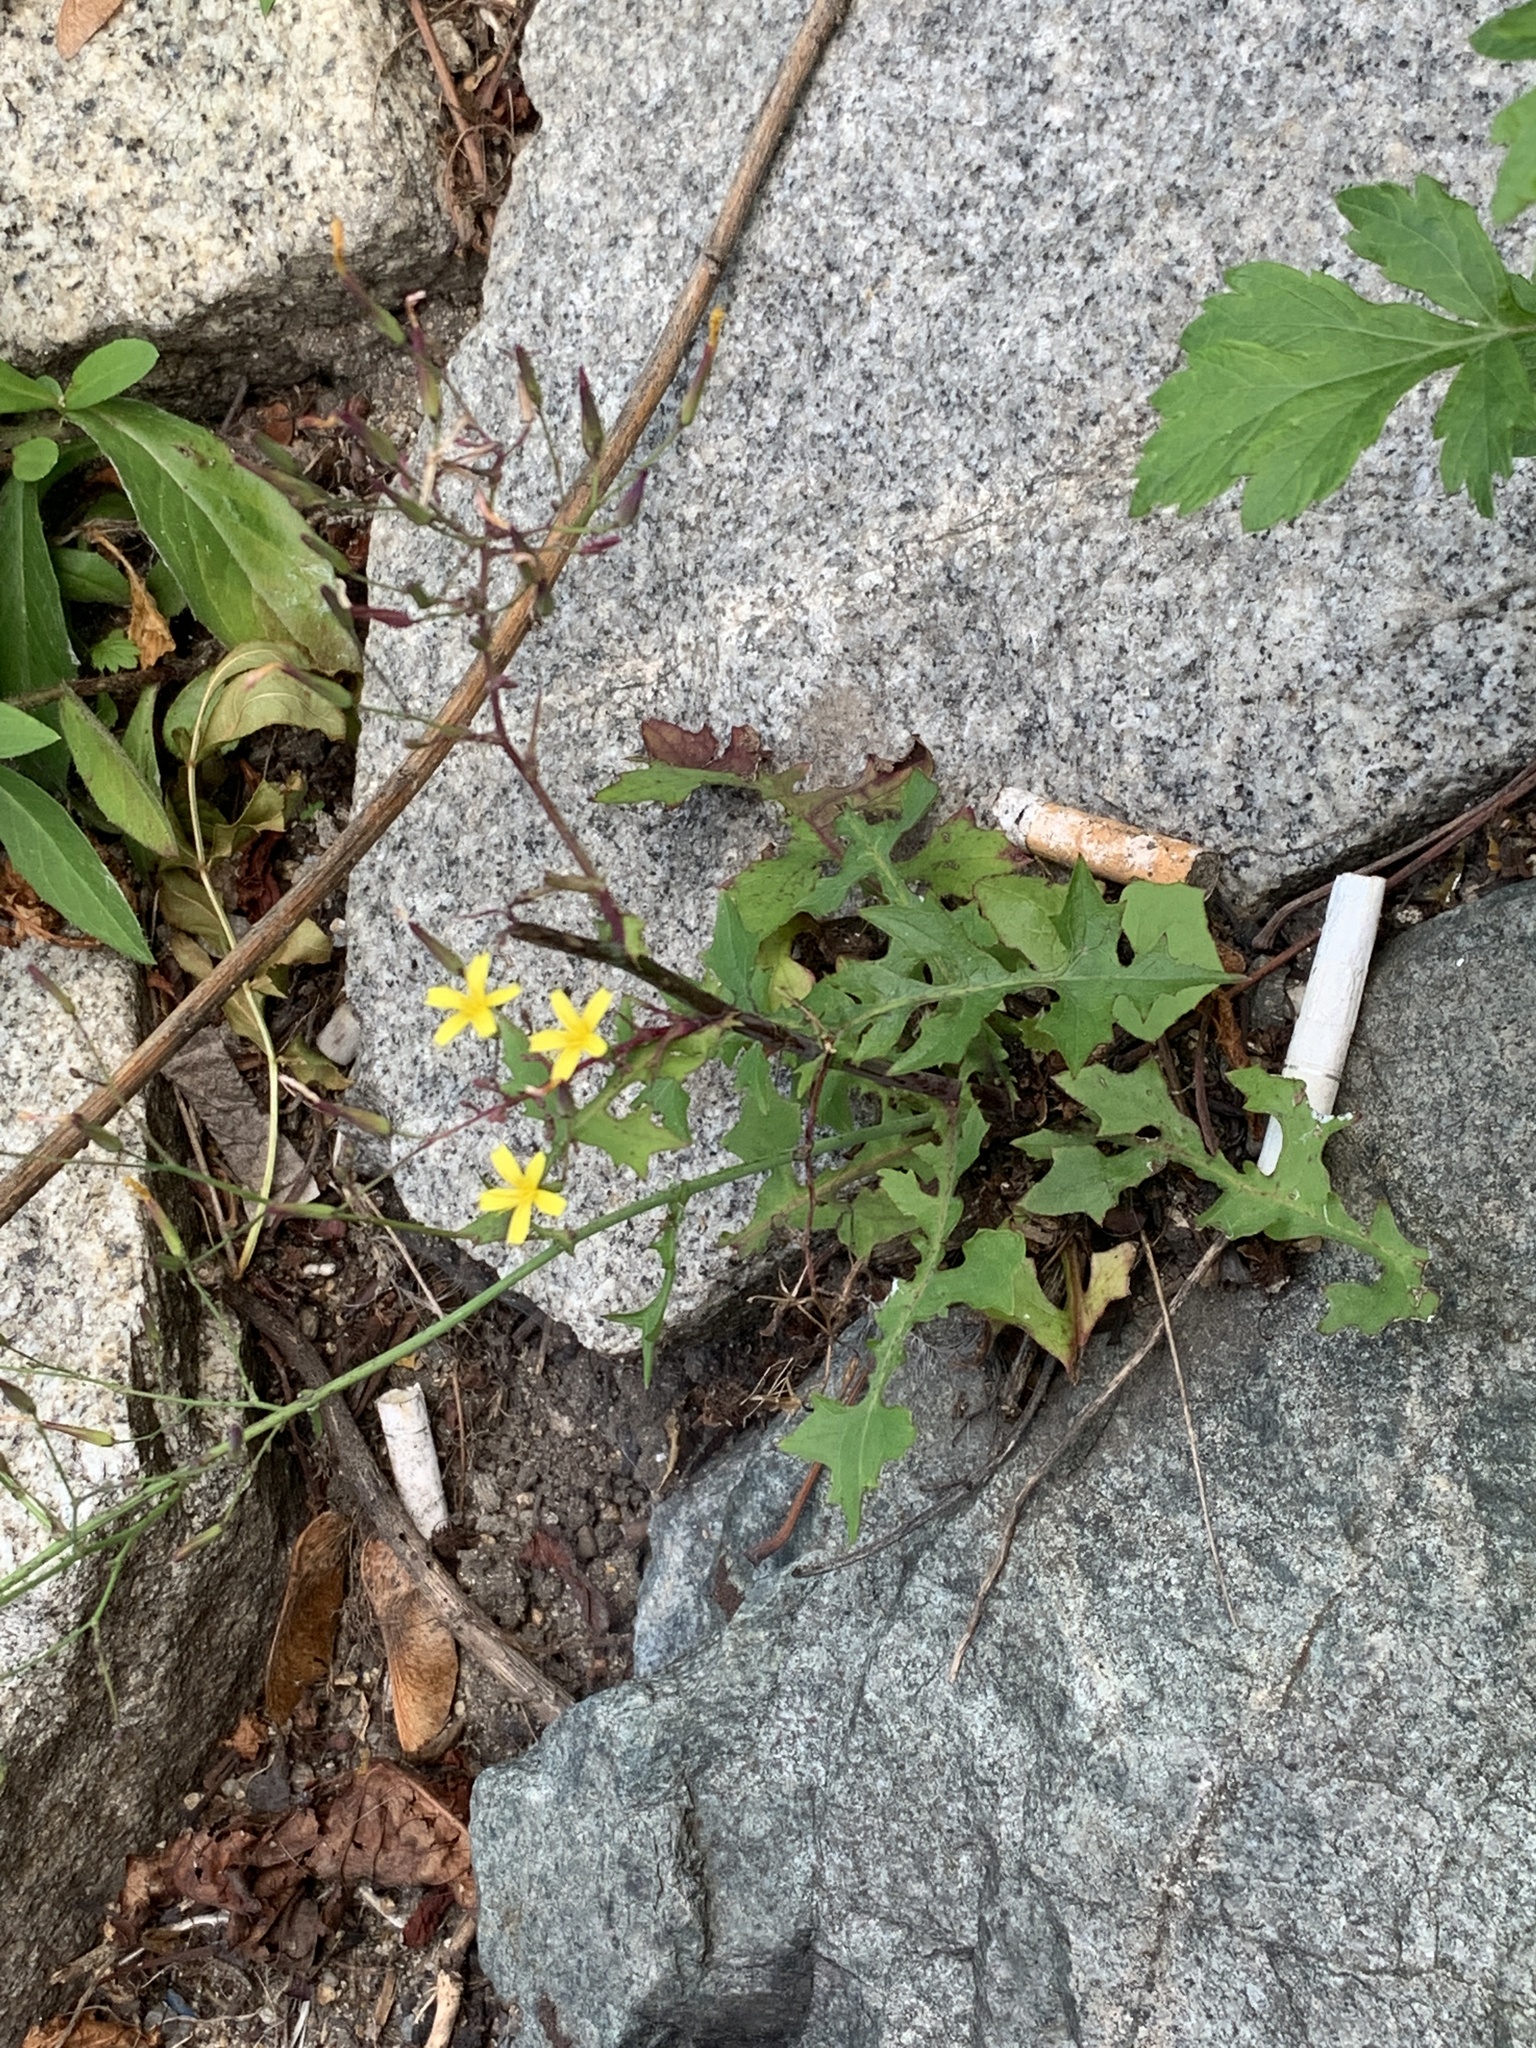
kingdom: Plantae
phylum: Tracheophyta
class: Magnoliopsida
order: Asterales
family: Asteraceae
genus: Mycelis
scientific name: Mycelis muralis
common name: Wall lettuce
